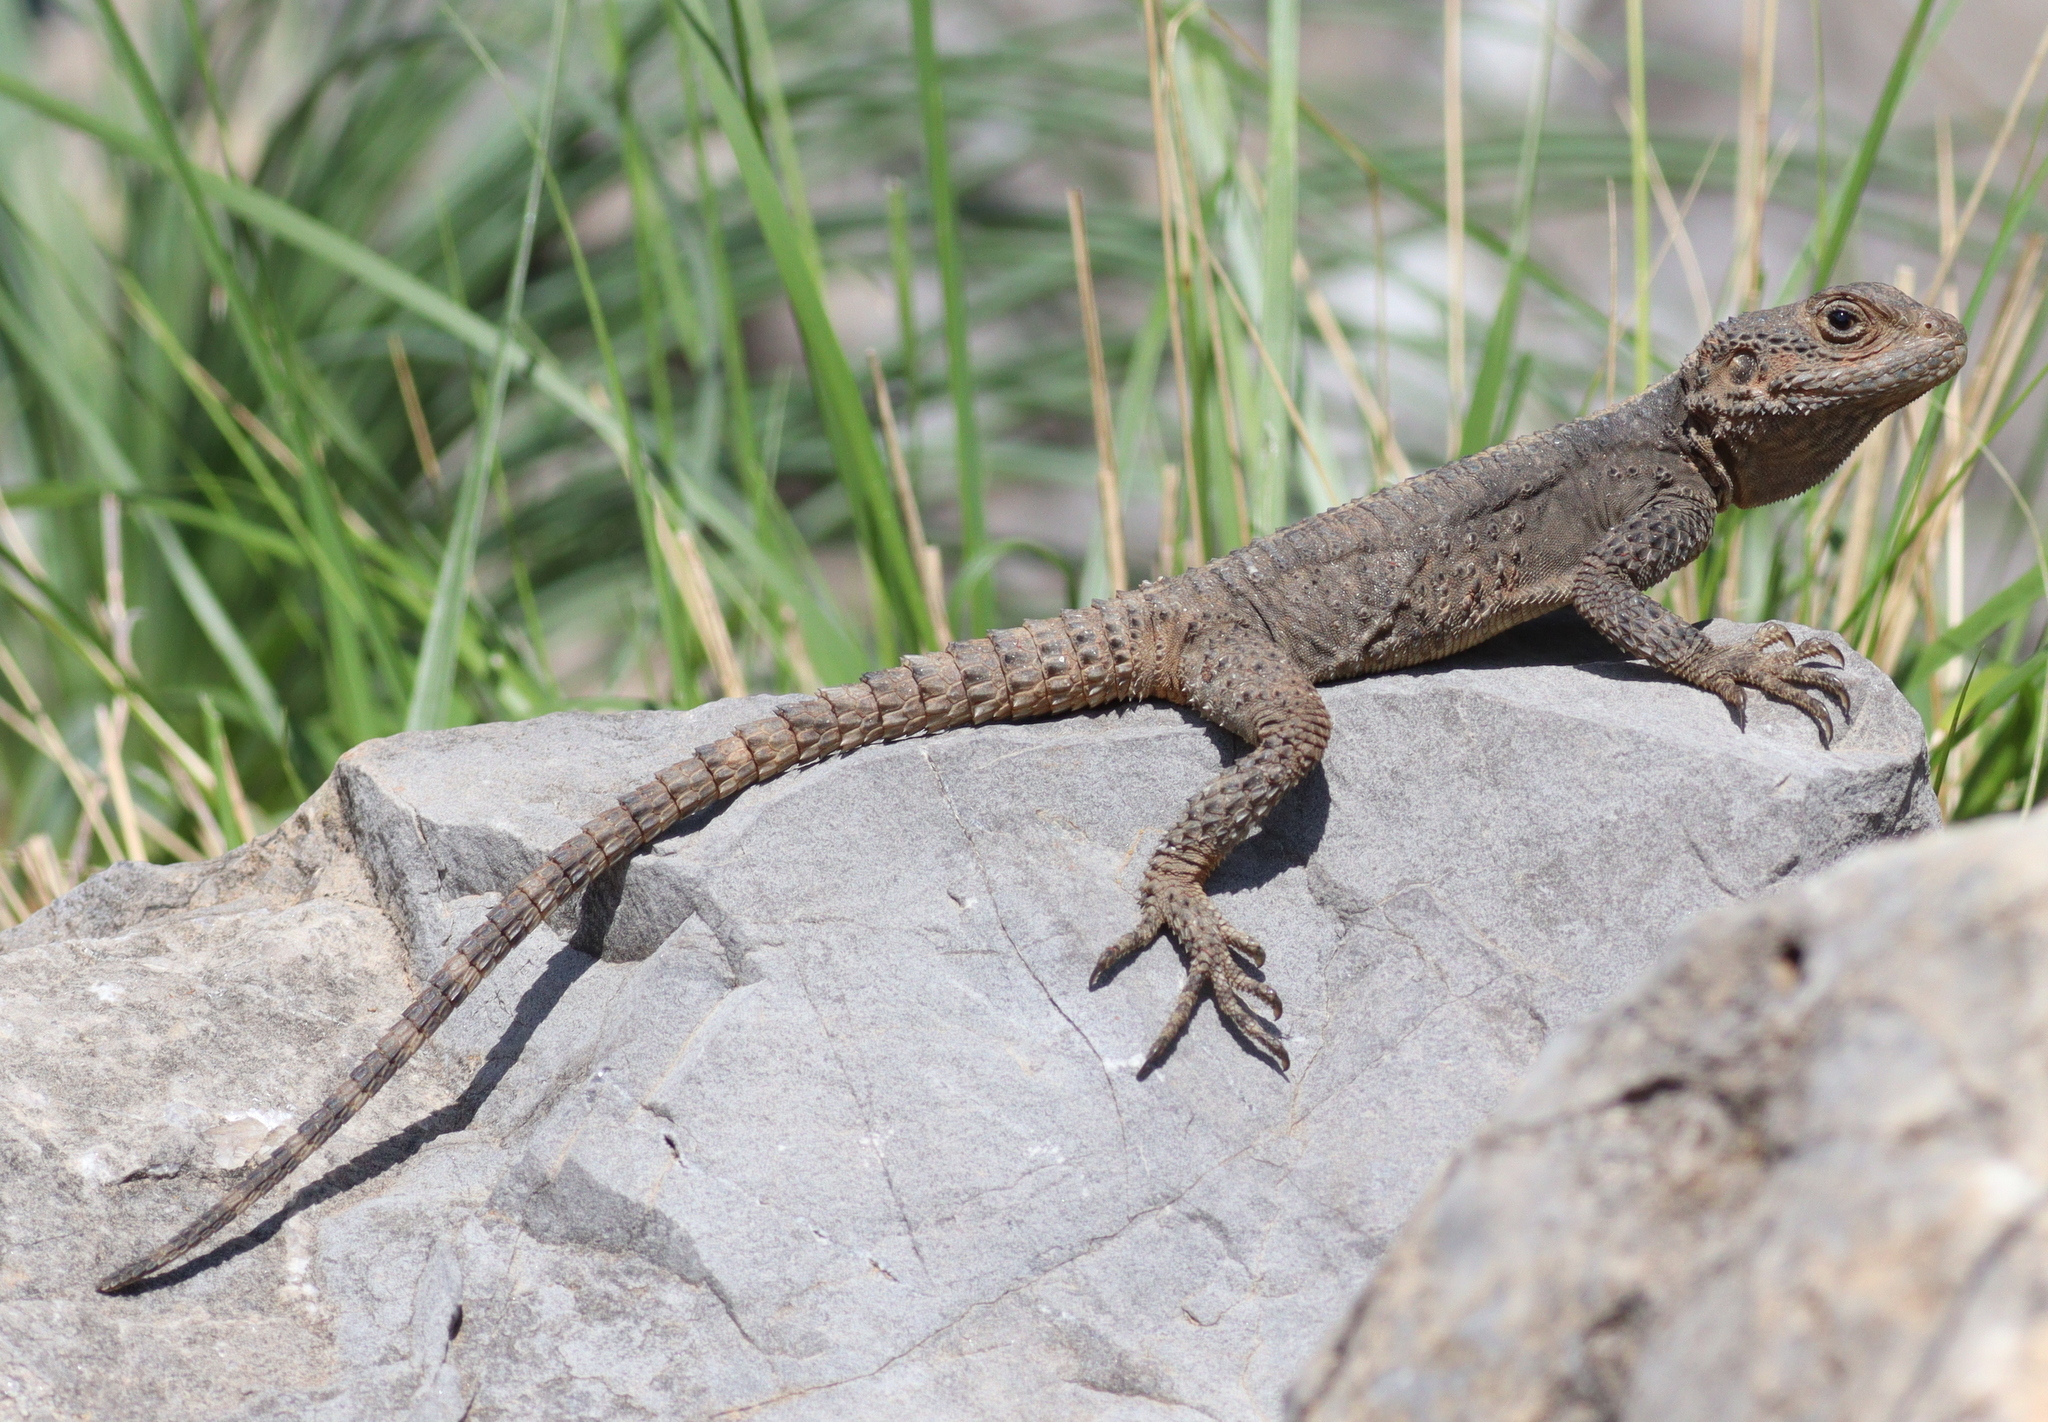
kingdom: Animalia
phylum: Chordata
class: Squamata
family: Agamidae
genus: Stellagama
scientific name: Stellagama stellio
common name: Starred agama
